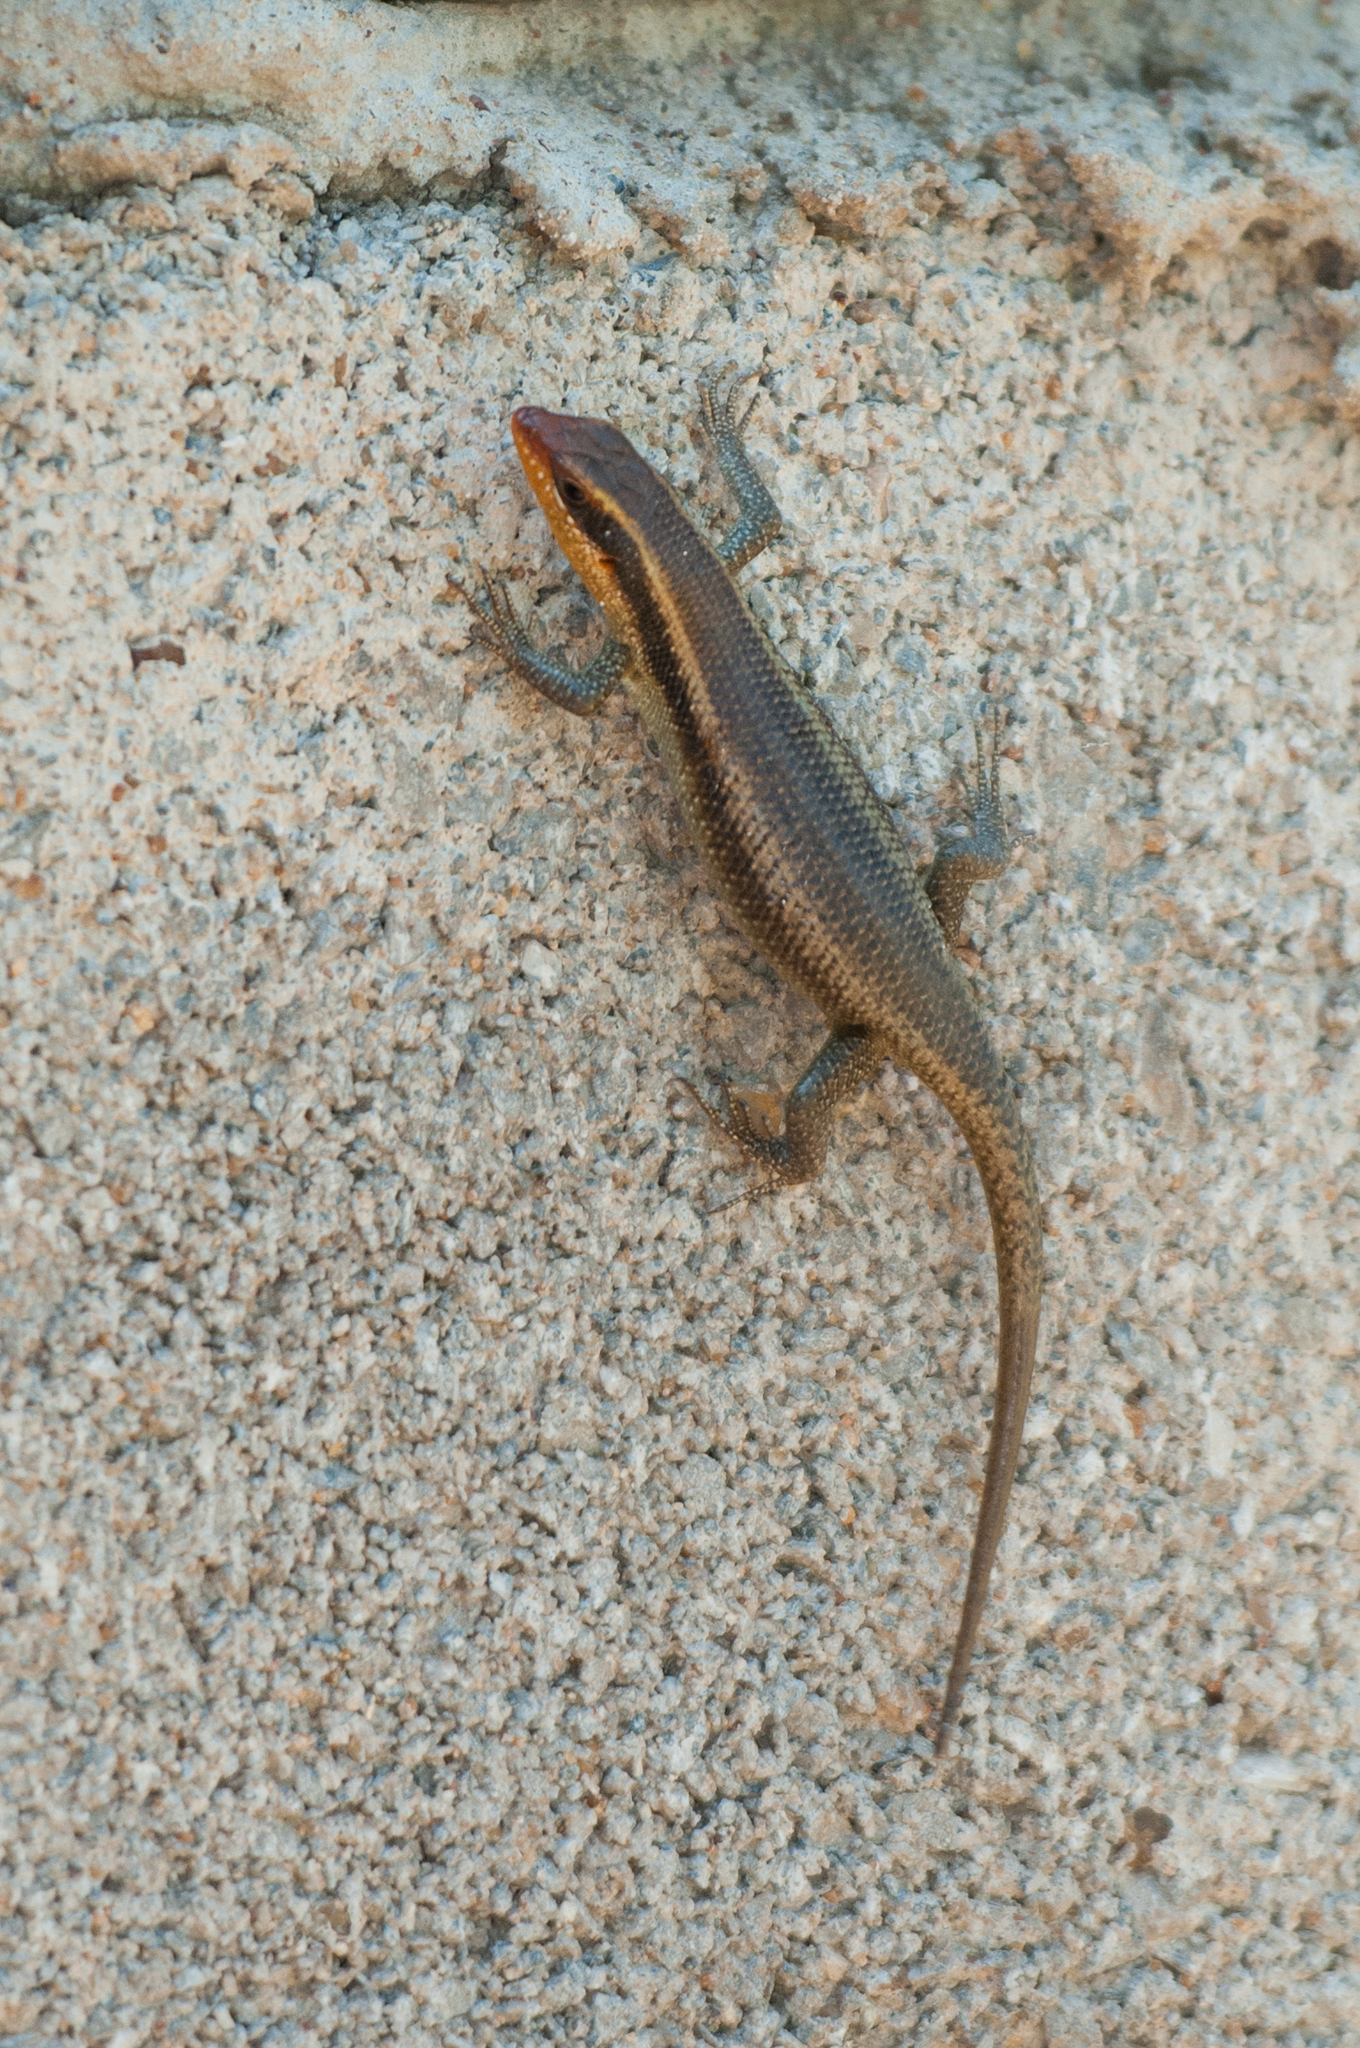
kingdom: Animalia
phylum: Chordata
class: Squamata
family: Scincidae
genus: Trachylepis
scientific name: Trachylepis wahlbergii
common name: Wahlberg’s striped skink
